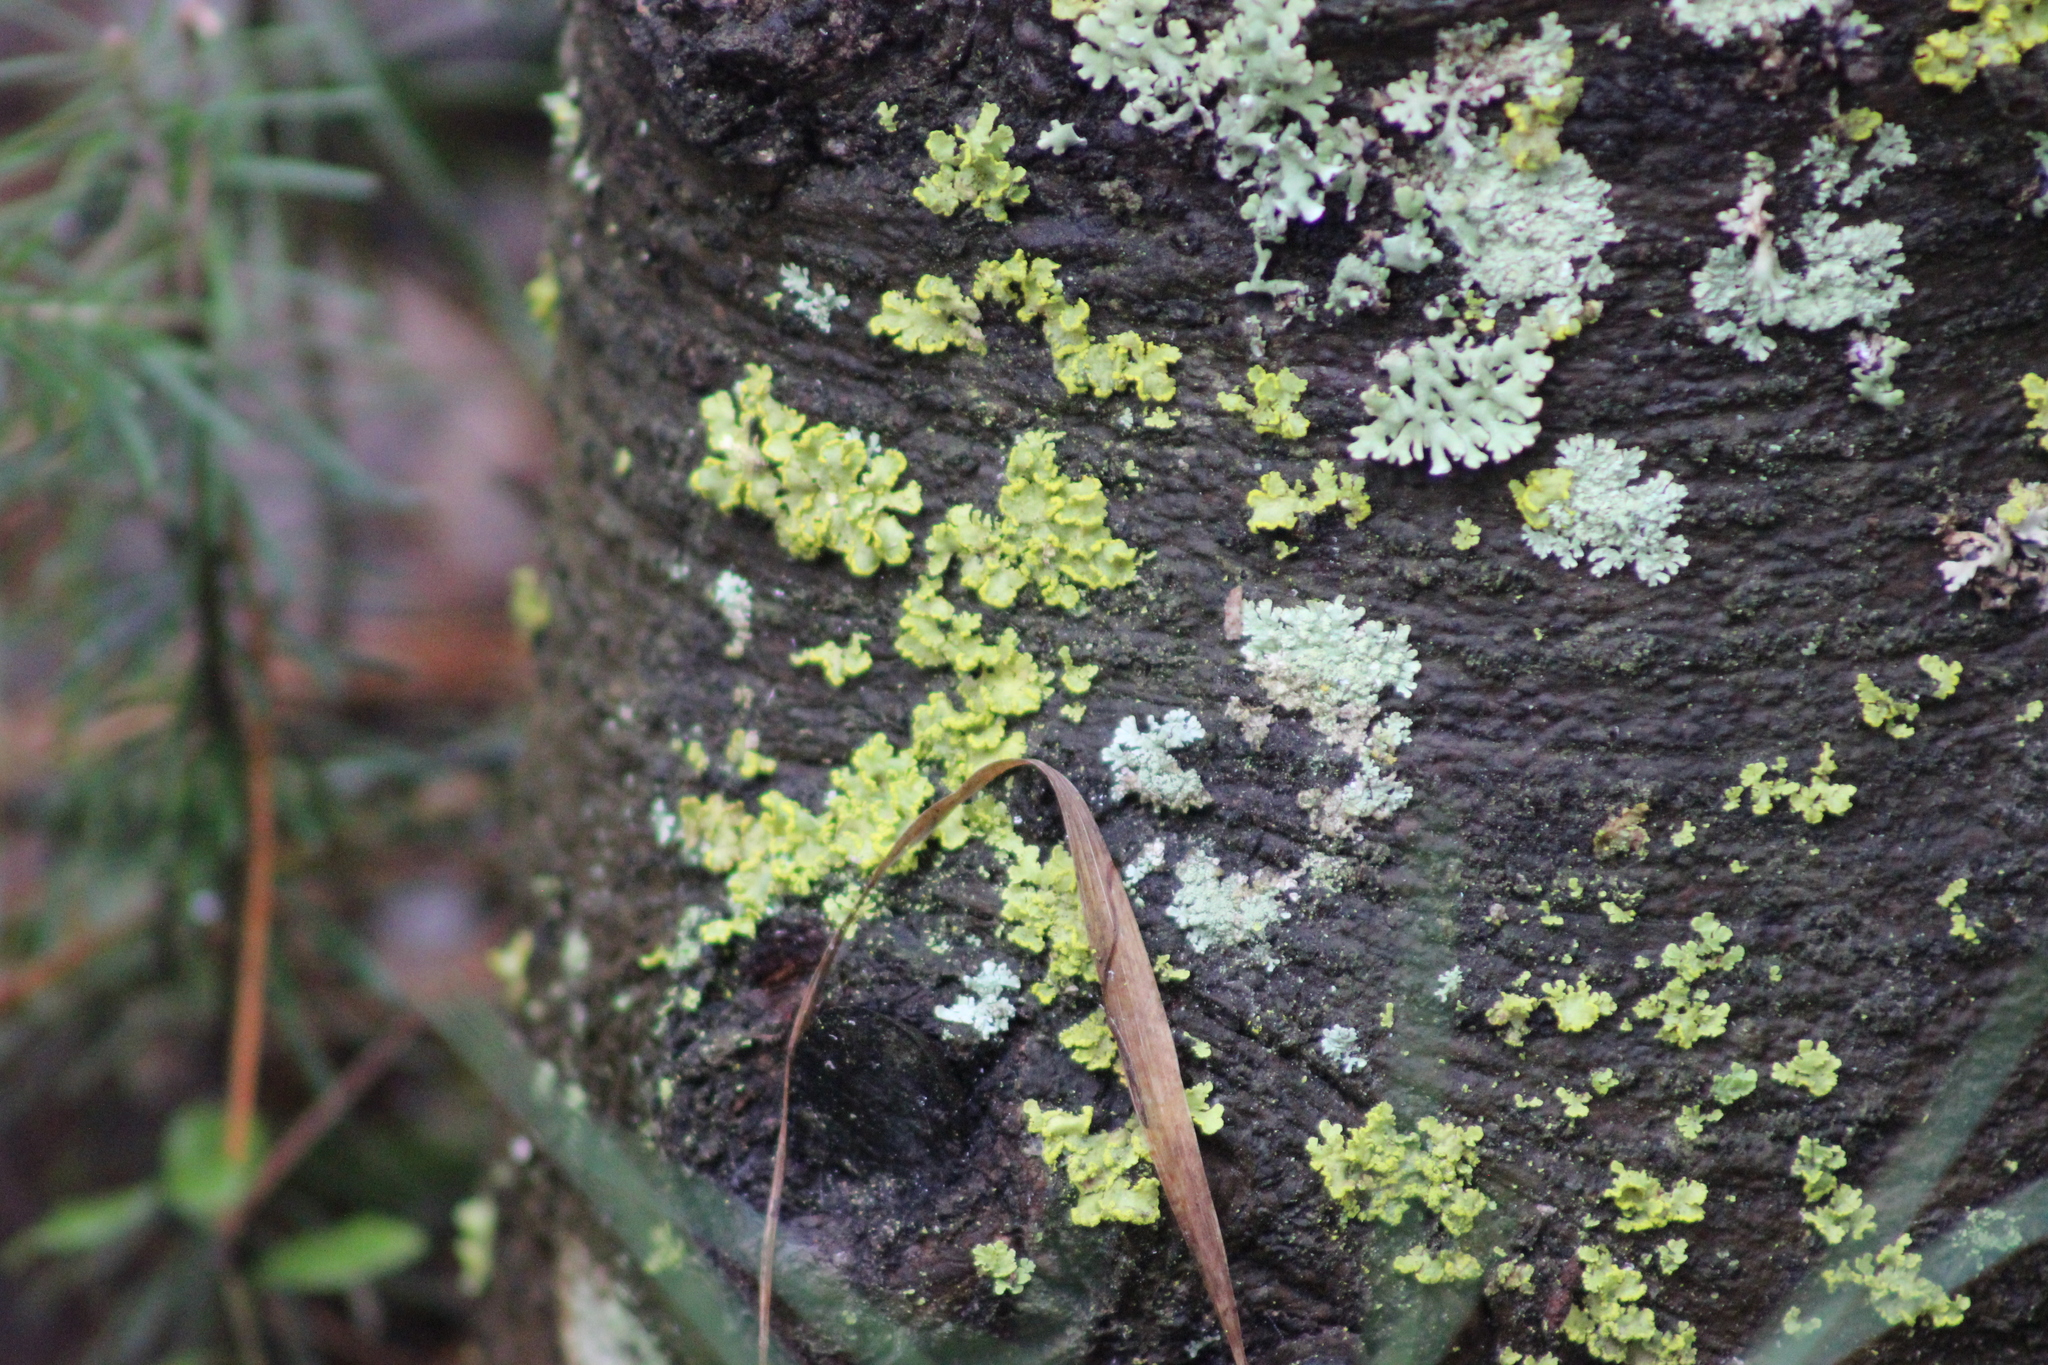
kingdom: Fungi
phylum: Ascomycota
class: Lecanoromycetes
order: Lecanorales
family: Parmeliaceae
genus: Vulpicida
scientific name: Vulpicida pinastri
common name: Powdered sunshine lichen
